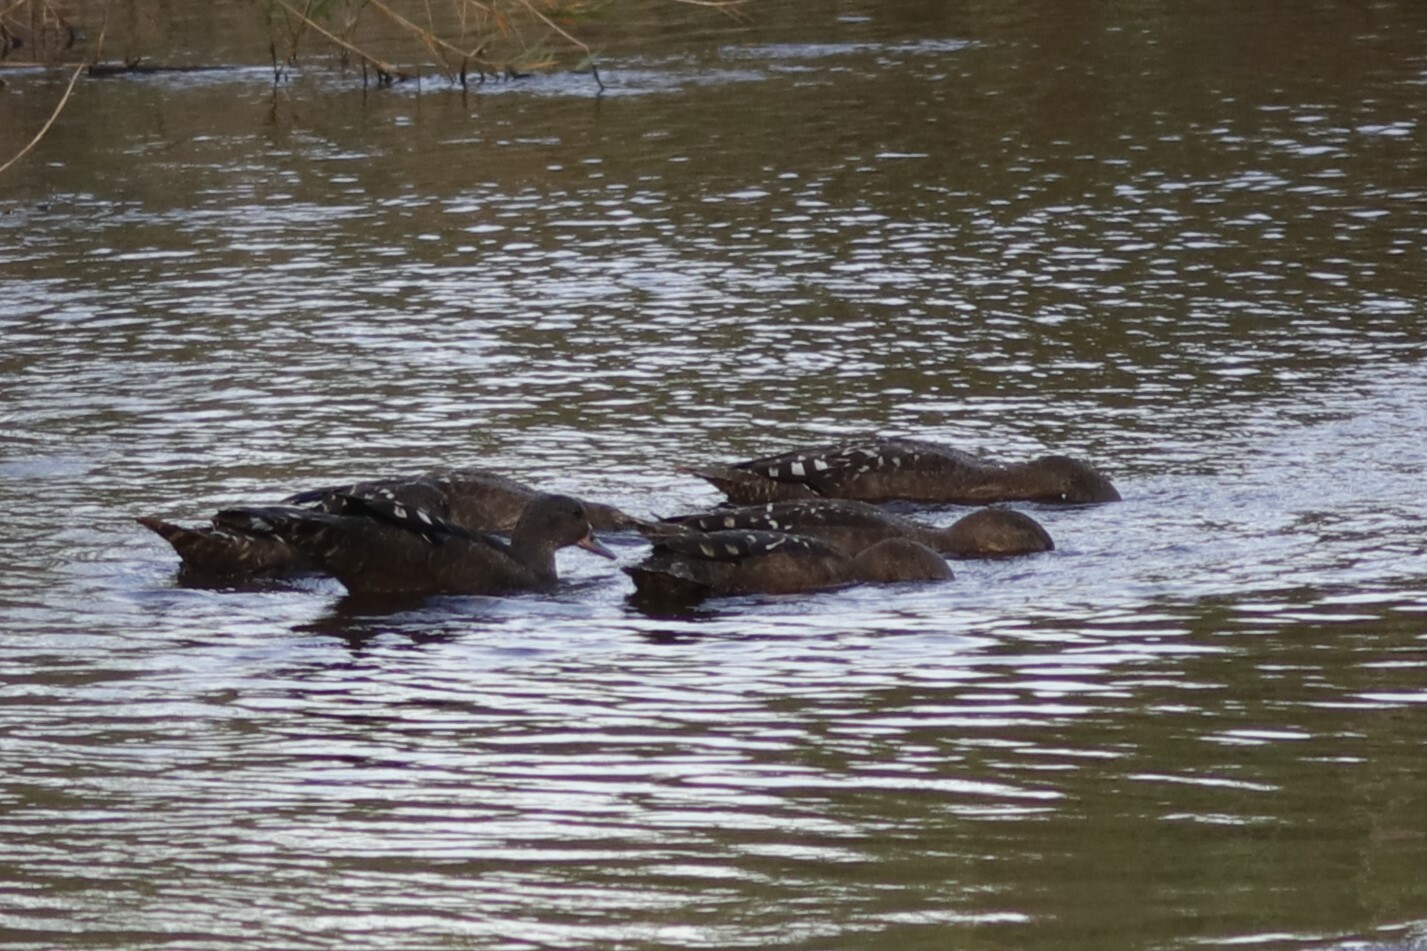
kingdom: Animalia
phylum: Chordata
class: Aves
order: Anseriformes
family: Anatidae
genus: Anas
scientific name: Anas sparsa
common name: African black duck
